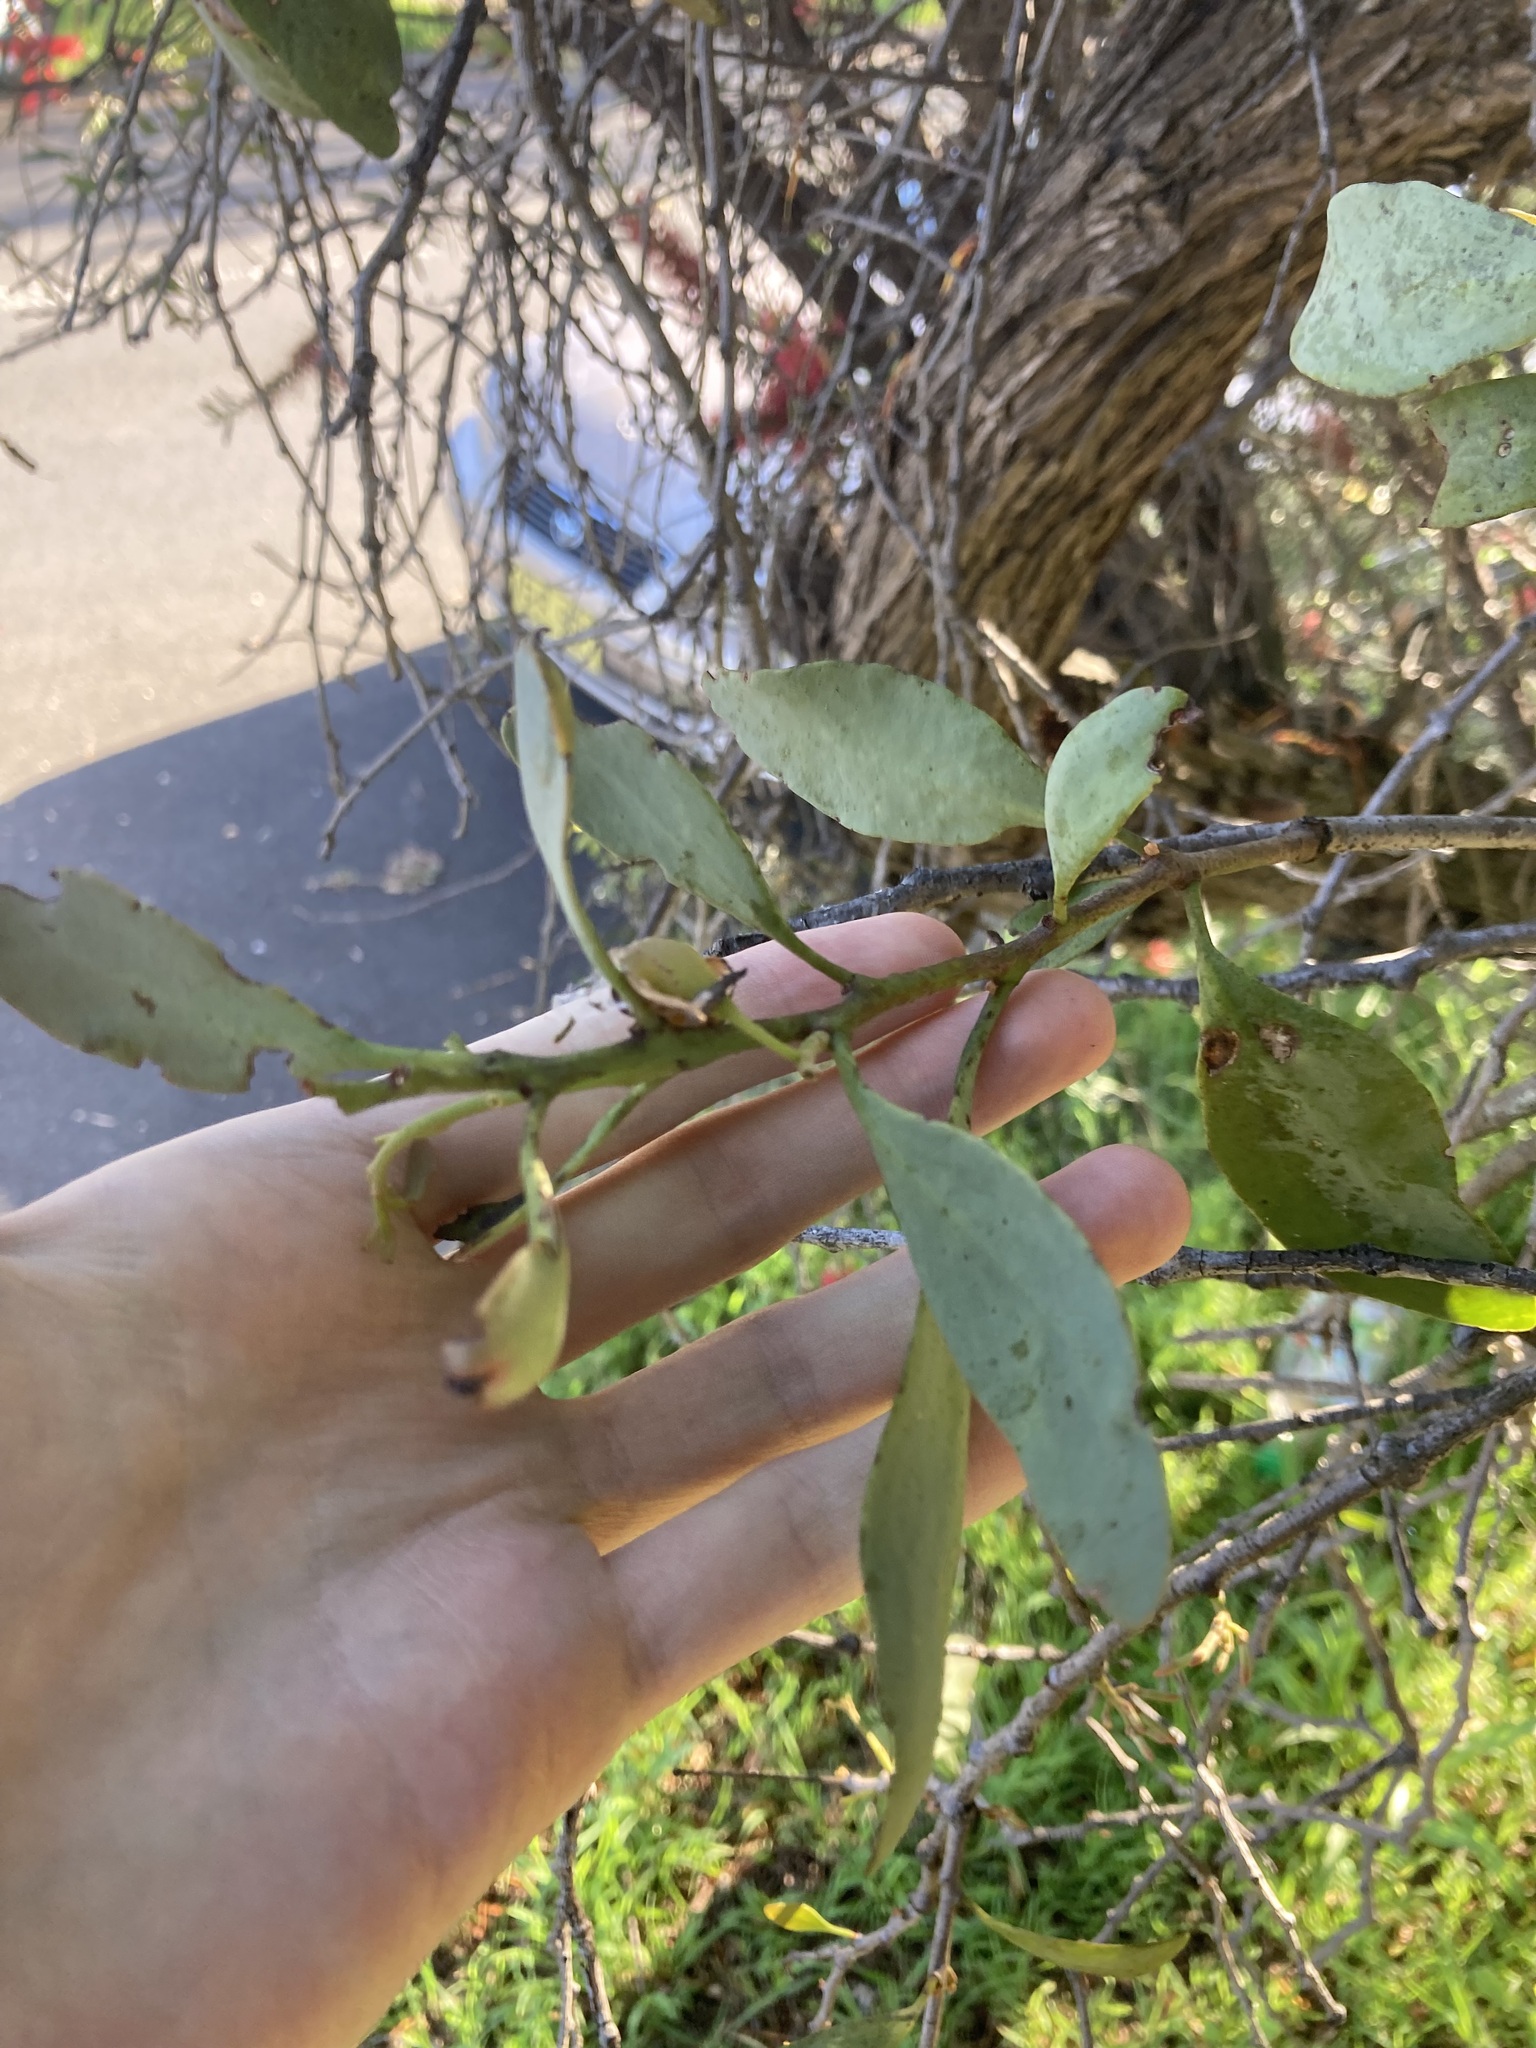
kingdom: Plantae
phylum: Tracheophyta
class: Magnoliopsida
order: Santalales
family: Loranthaceae
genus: Dendrophthoe
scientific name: Dendrophthoe vitellina
